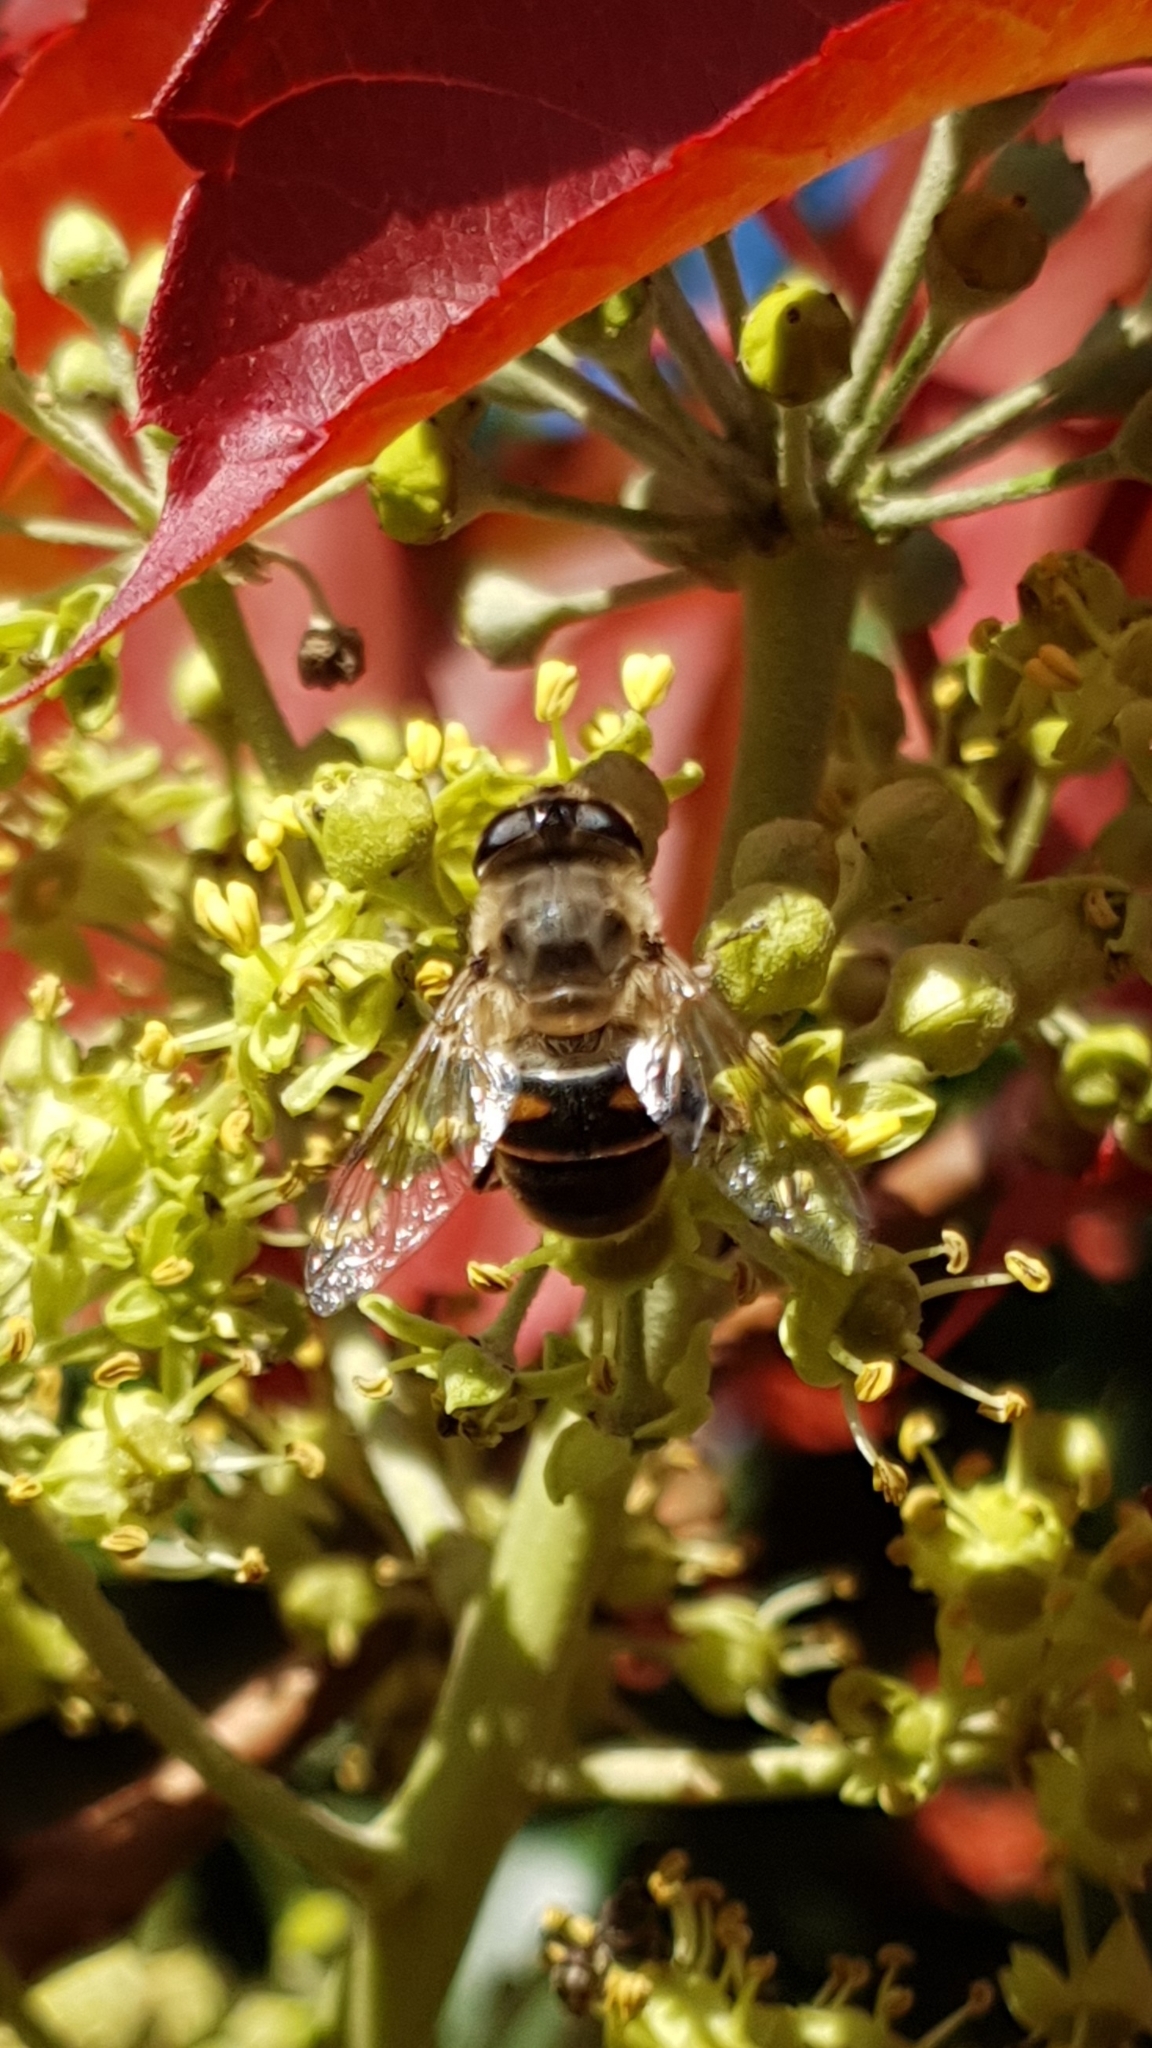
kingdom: Animalia
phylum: Arthropoda
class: Insecta
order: Diptera
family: Syrphidae
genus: Eristalis
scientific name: Eristalis tenax
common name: Drone fly
